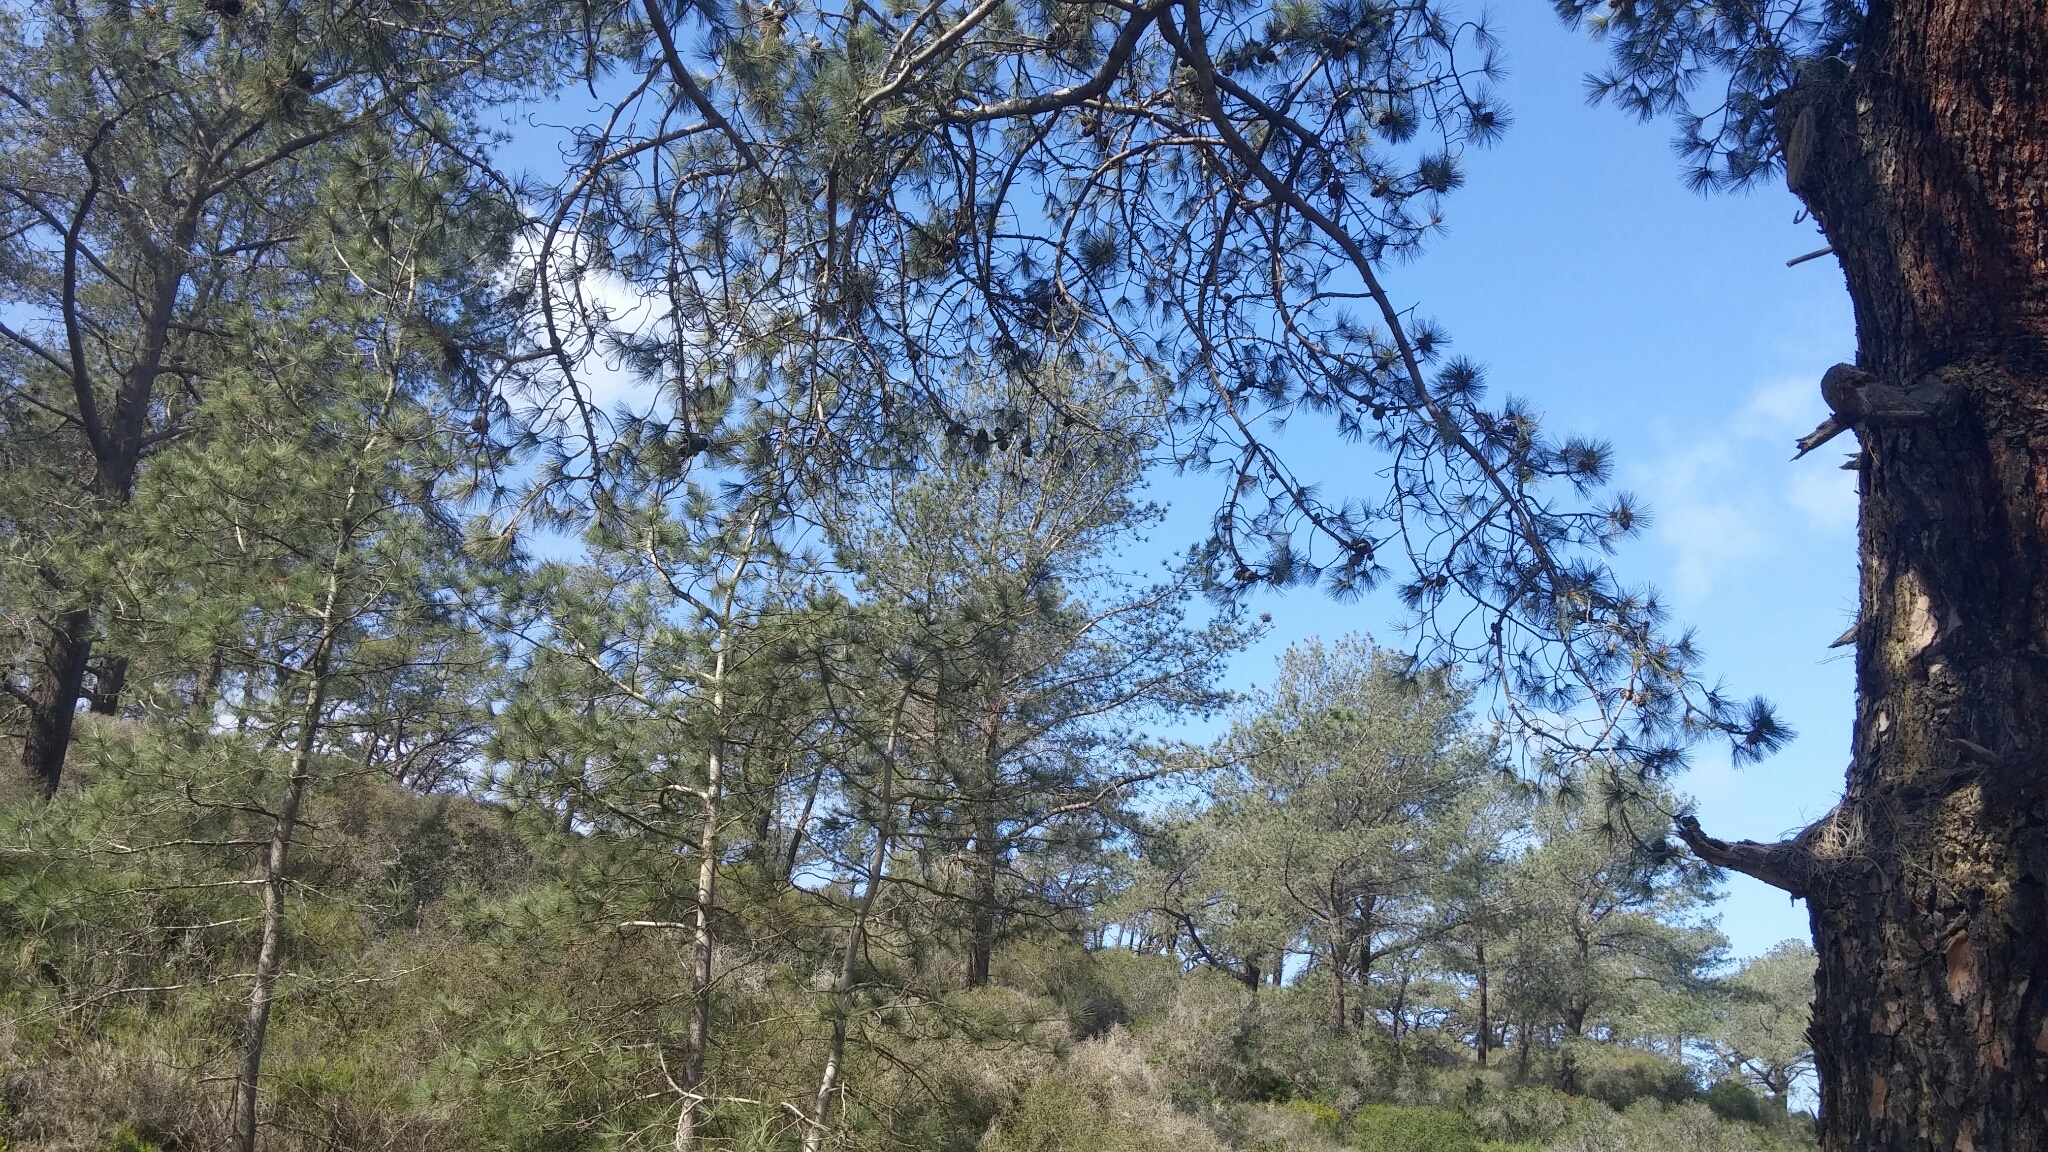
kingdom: Plantae
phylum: Tracheophyta
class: Pinopsida
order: Pinales
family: Pinaceae
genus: Pinus
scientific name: Pinus torreyana
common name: Torrey pine
